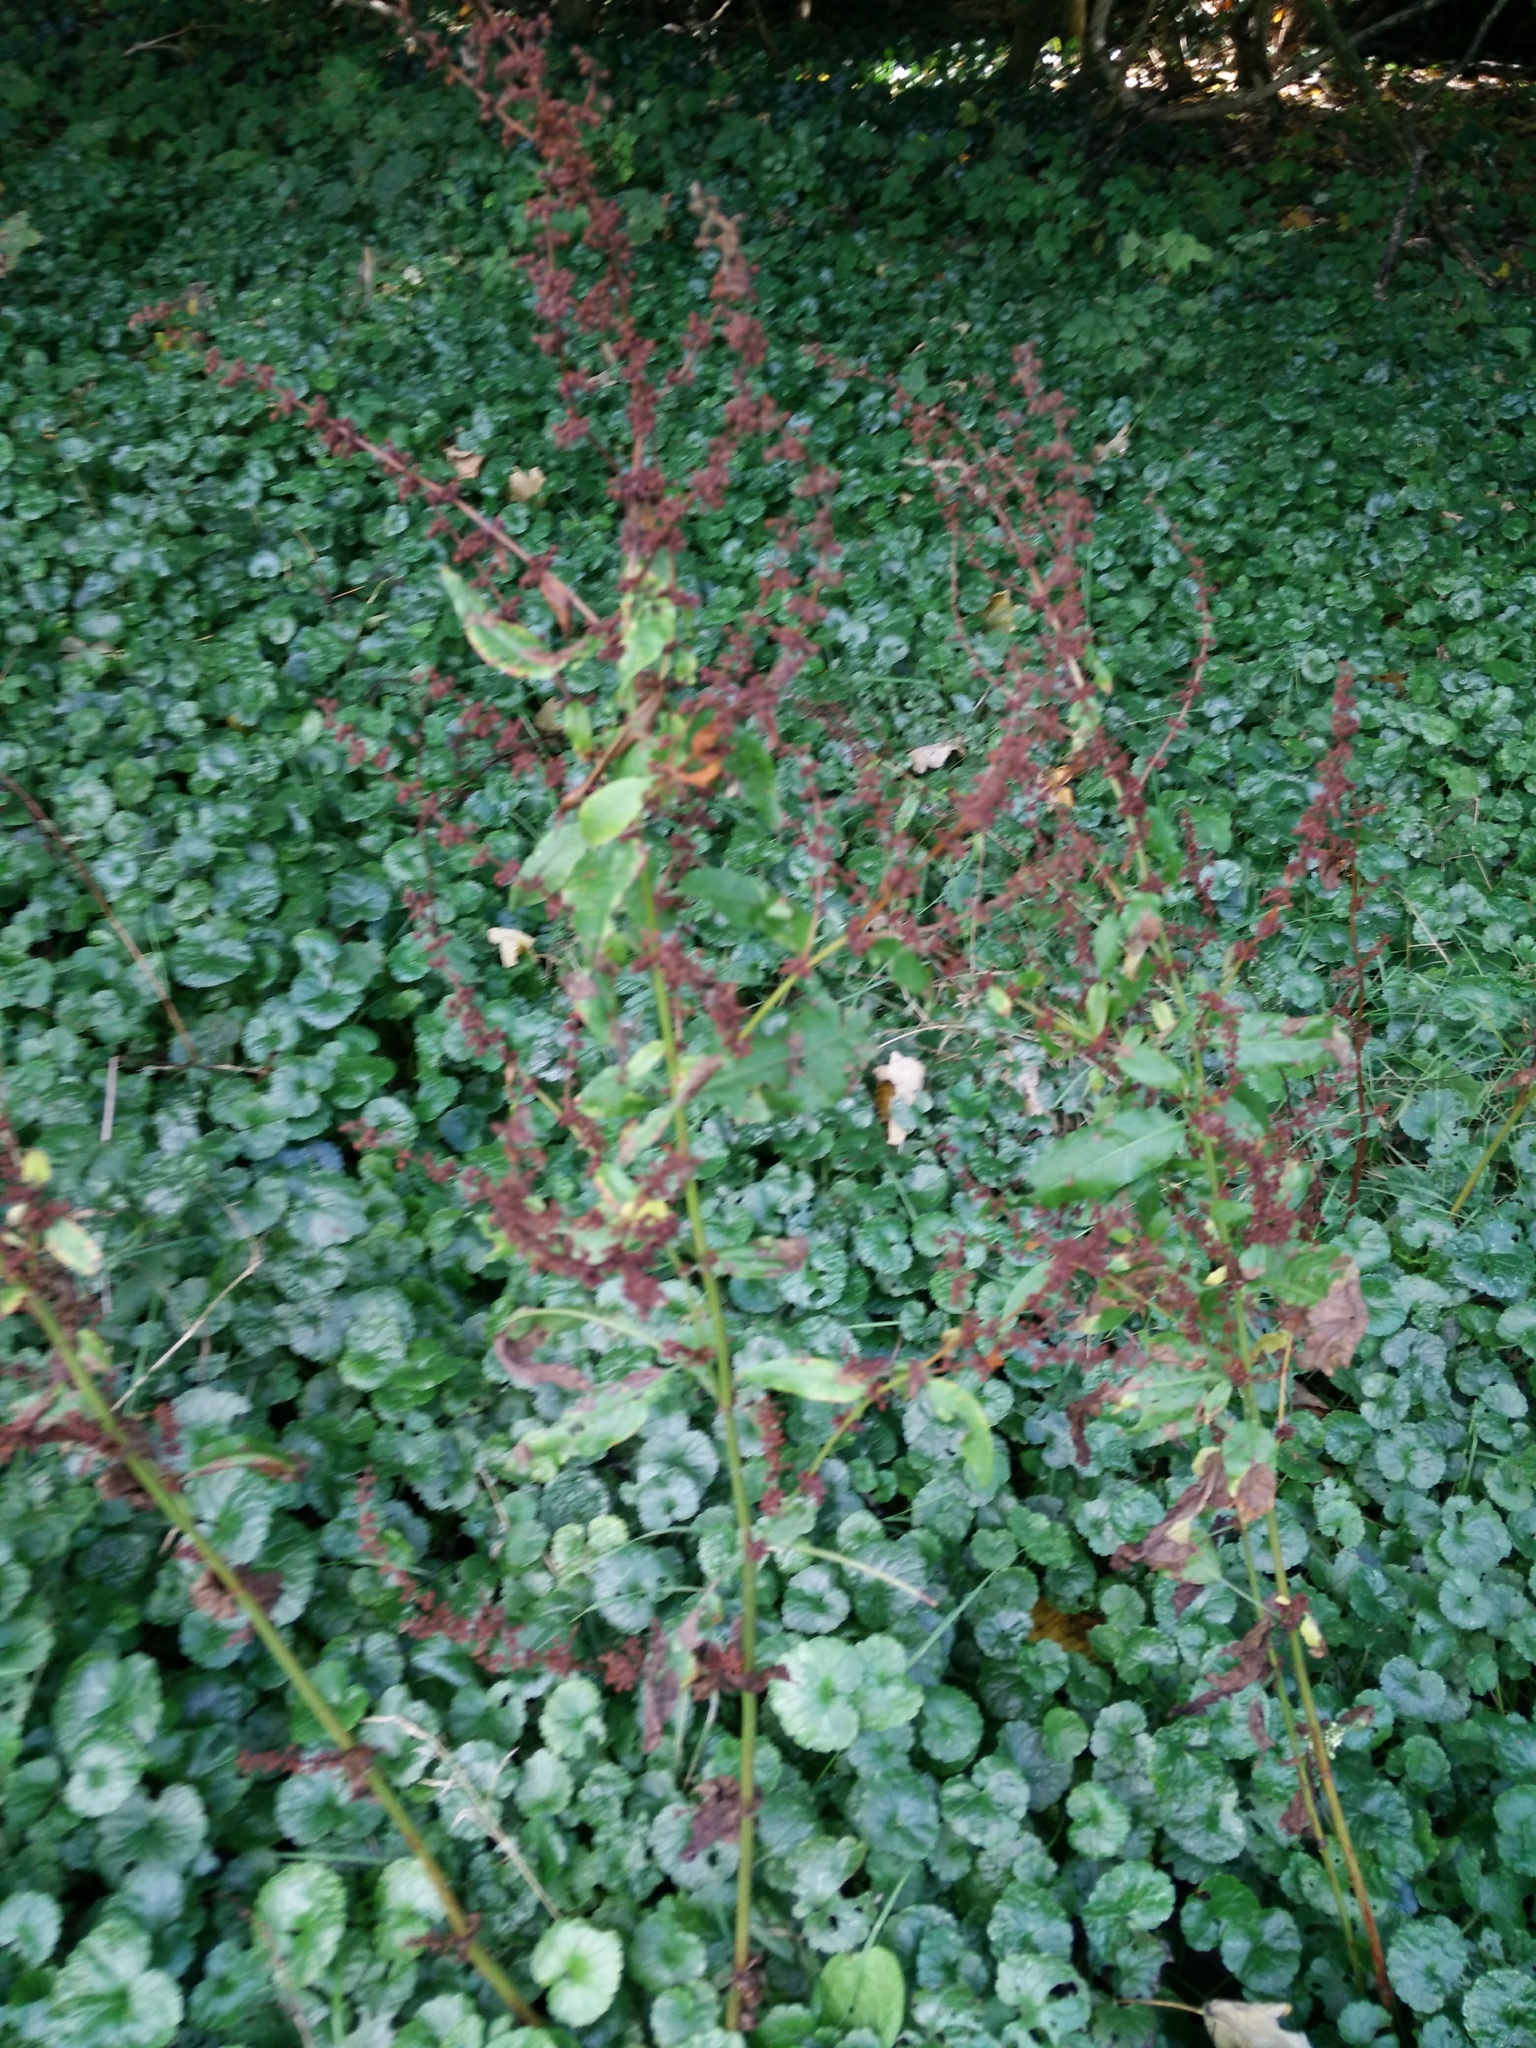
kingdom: Plantae
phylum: Tracheophyta
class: Magnoliopsida
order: Caryophyllales
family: Polygonaceae
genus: Rumex
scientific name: Rumex sanguineus
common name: Wood dock
